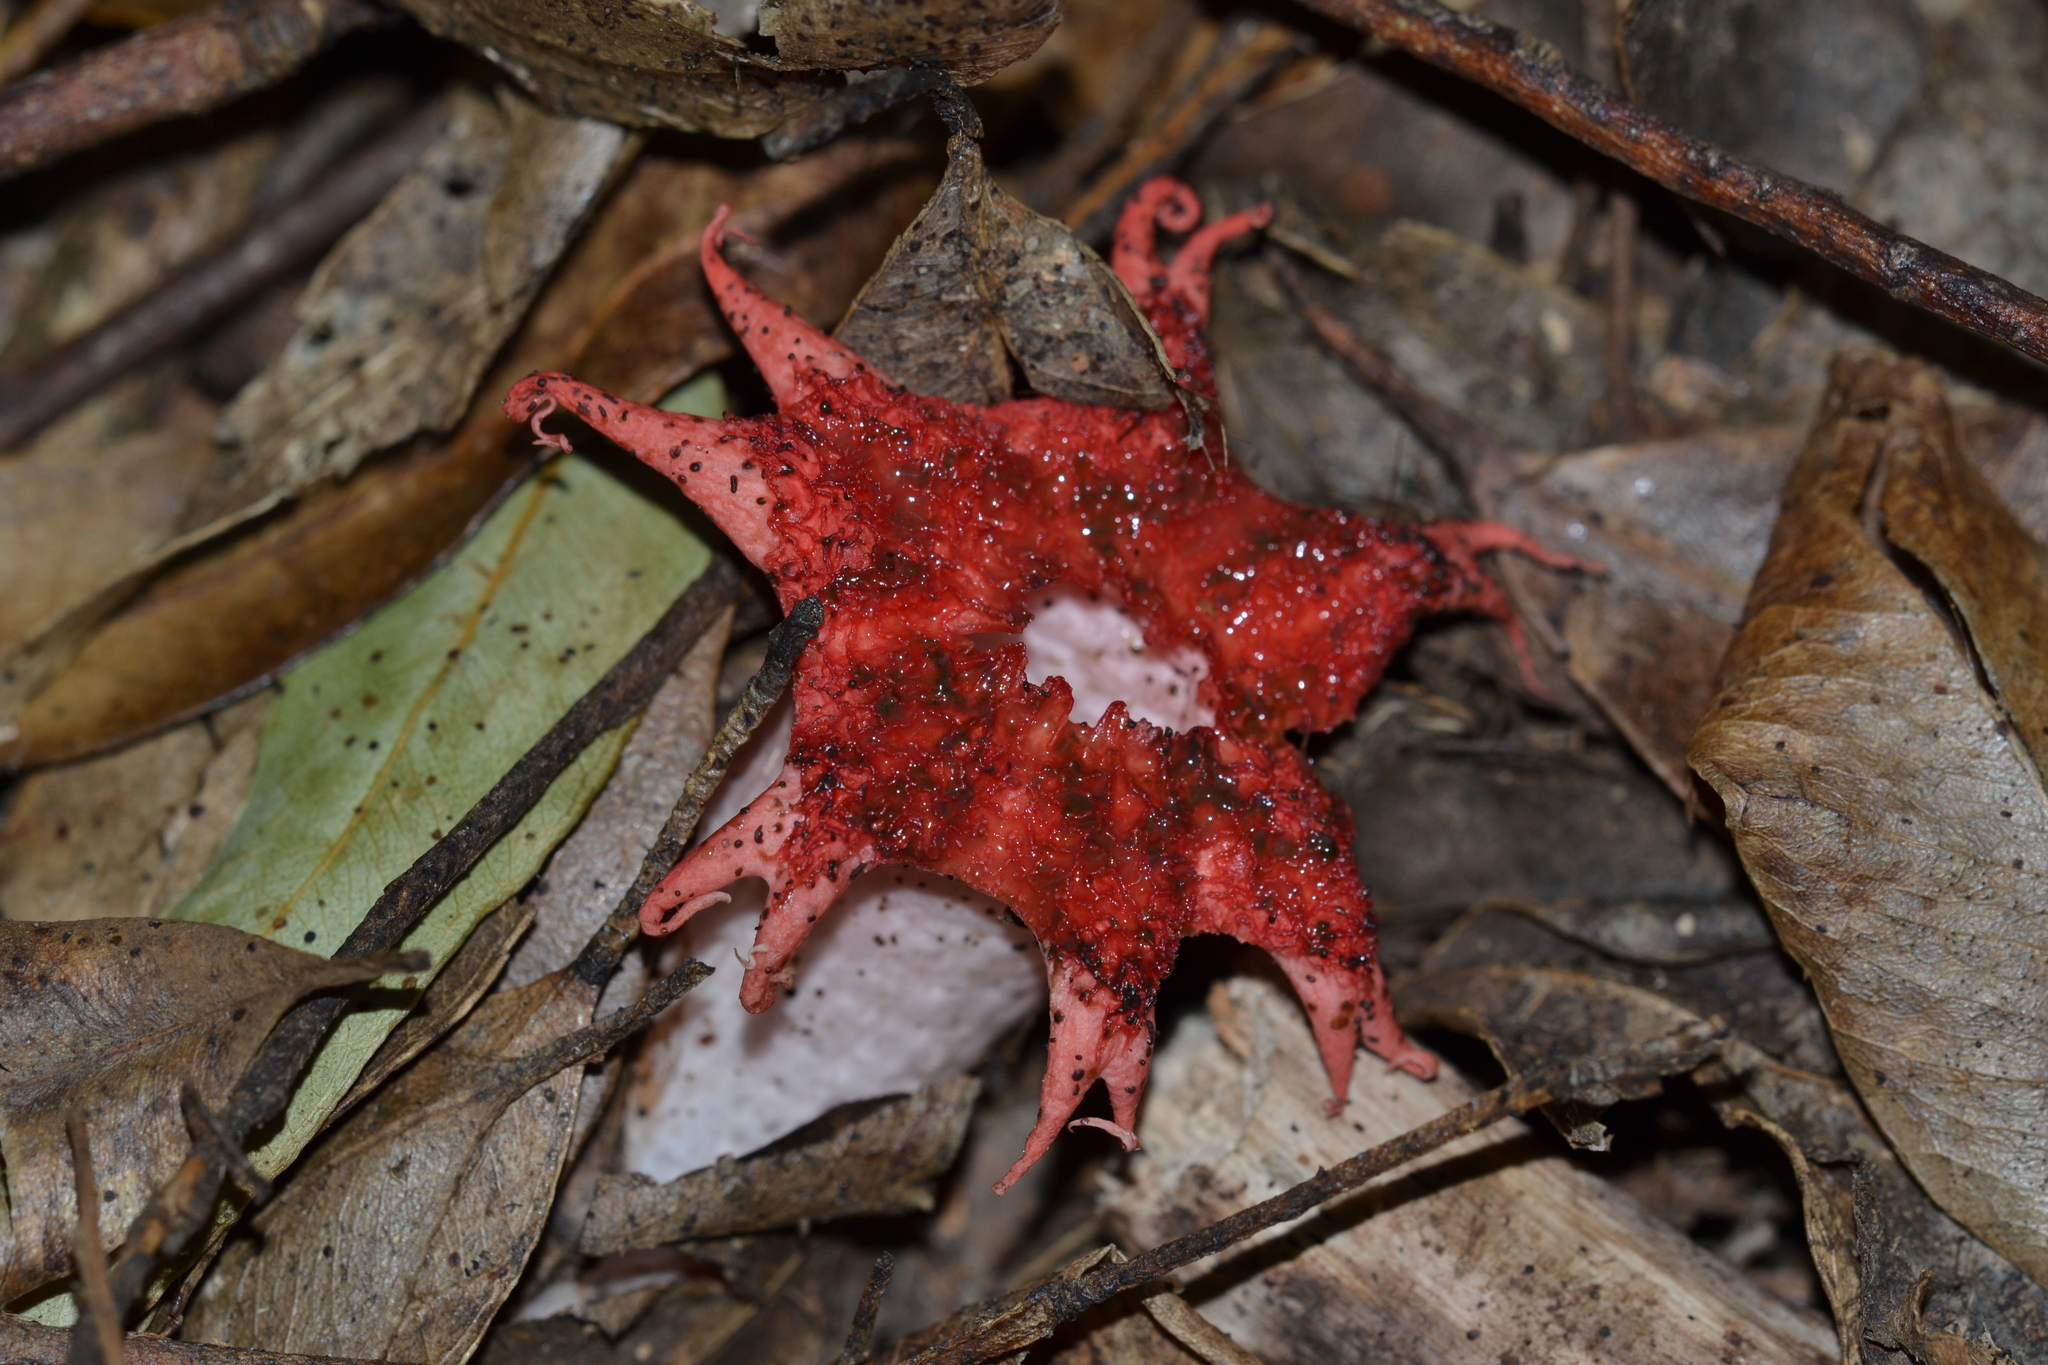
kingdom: Fungi
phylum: Basidiomycota
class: Agaricomycetes
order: Phallales
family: Phallaceae
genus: Aseroe
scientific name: Aseroe rubra
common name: Starfish fungus
